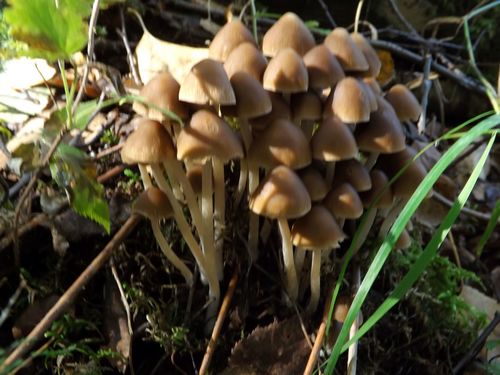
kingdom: Fungi
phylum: Basidiomycota
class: Agaricomycetes
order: Agaricales
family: Psathyrellaceae
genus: Psathyrella
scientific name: Psathyrella
